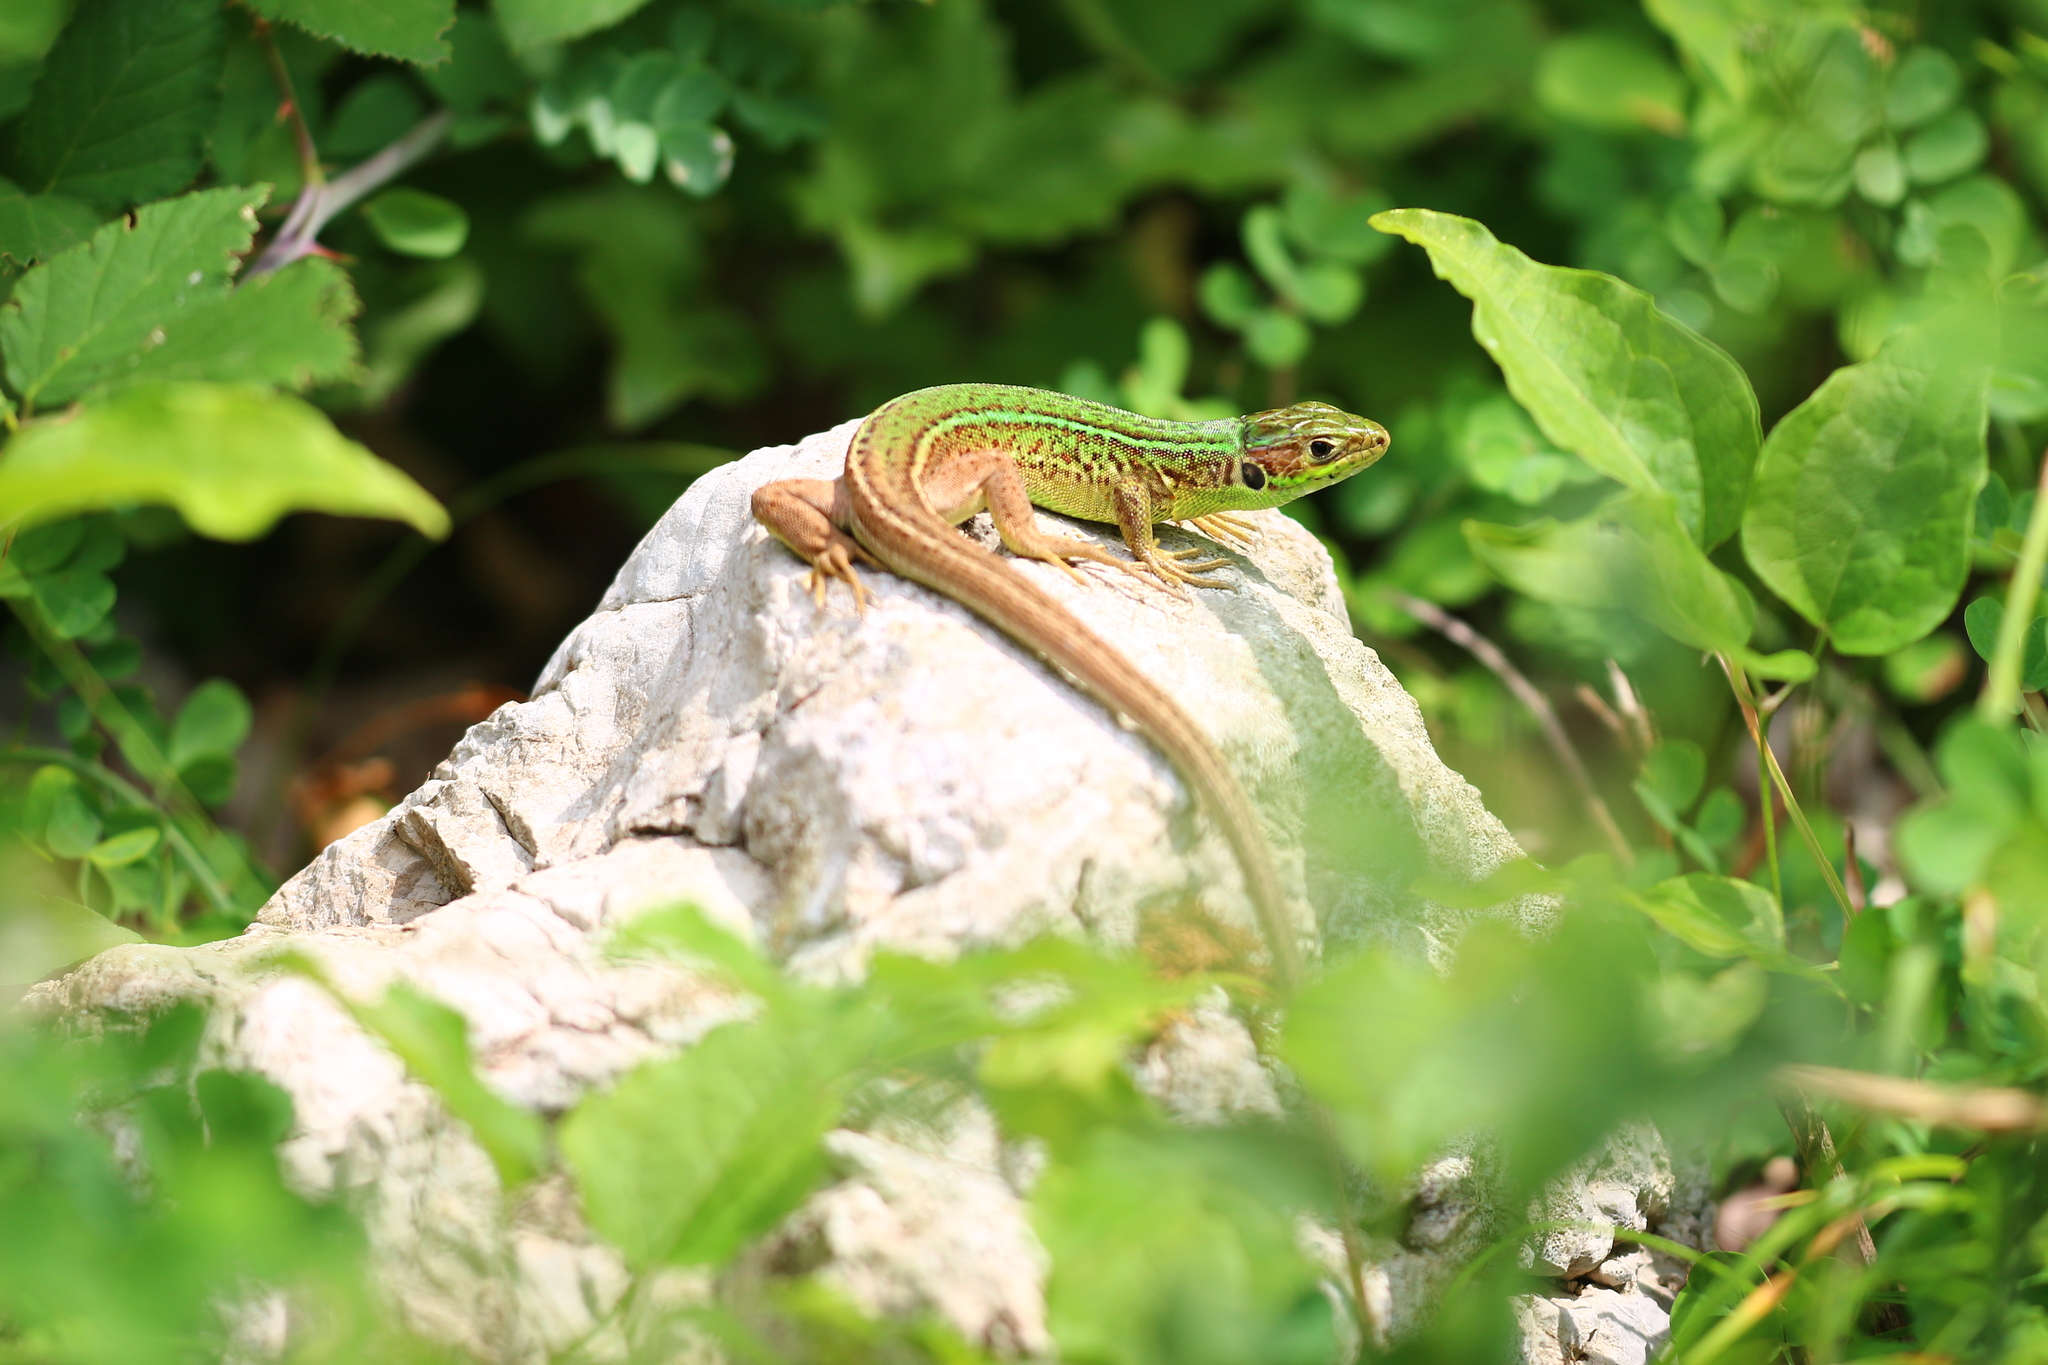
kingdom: Animalia
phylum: Chordata
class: Squamata
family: Lacertidae
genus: Lacerta
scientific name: Lacerta viridis
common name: European green lizard
